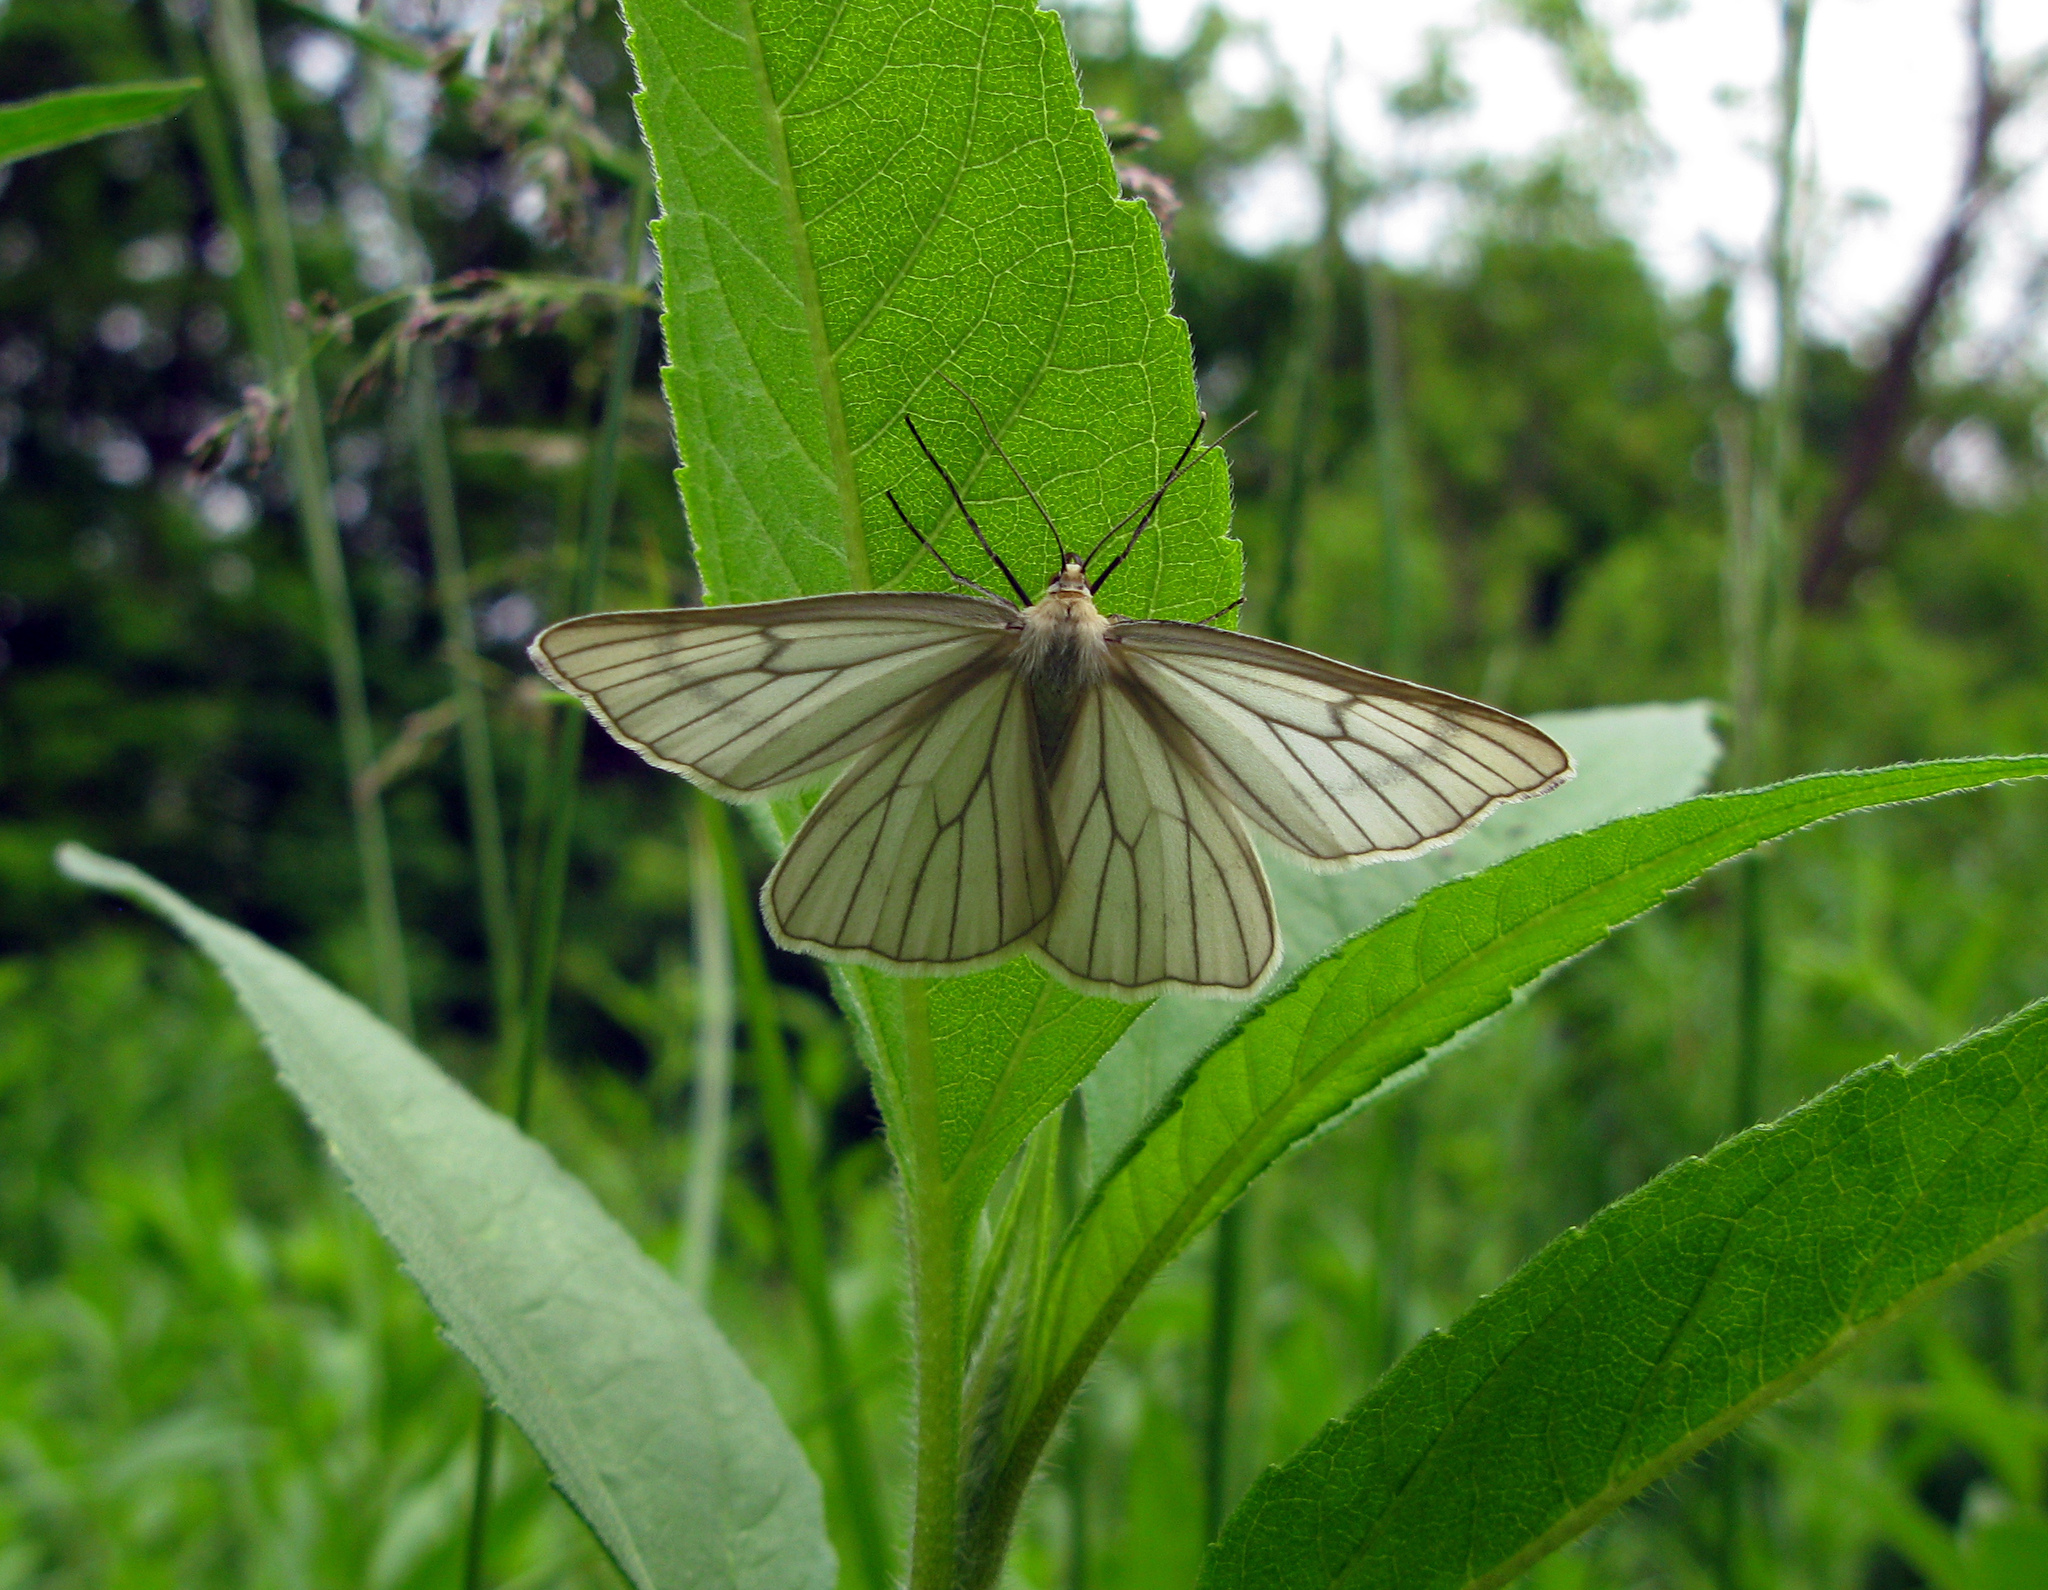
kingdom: Animalia
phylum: Arthropoda
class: Insecta
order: Lepidoptera
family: Geometridae
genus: Siona
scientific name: Siona lineata
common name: Black-veined moth
